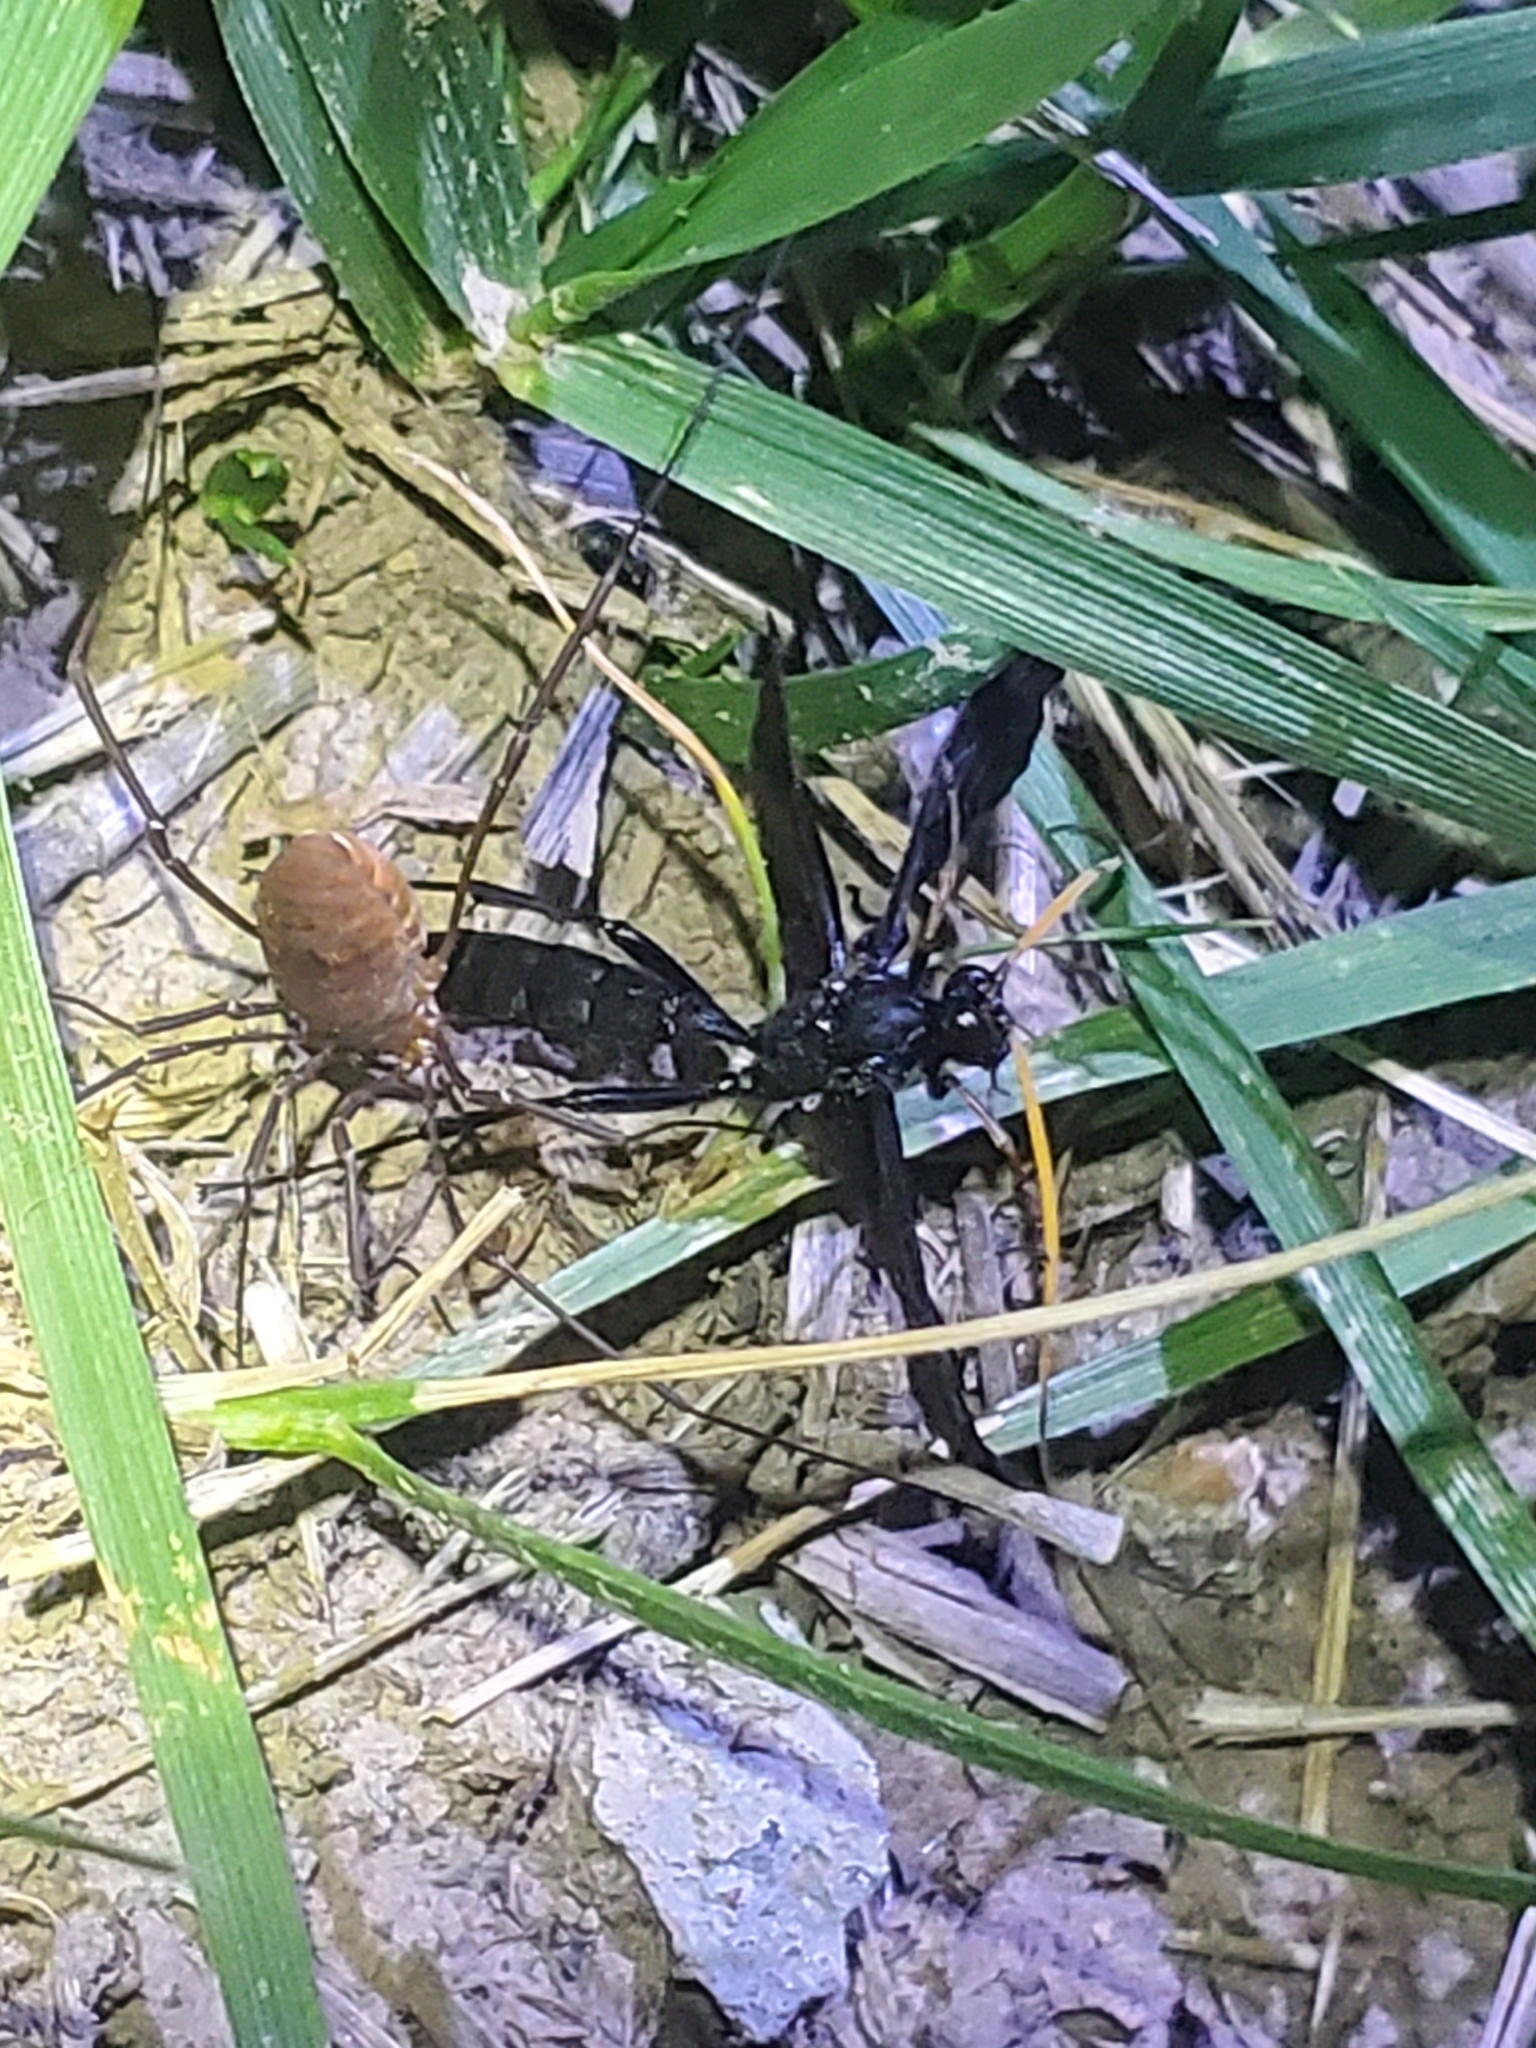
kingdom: Animalia
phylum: Arthropoda
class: Insecta
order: Hymenoptera
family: Ichneumonidae
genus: Gnamptopelta
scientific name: Gnamptopelta obsidianator
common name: Bent-shielded besieger wasp
